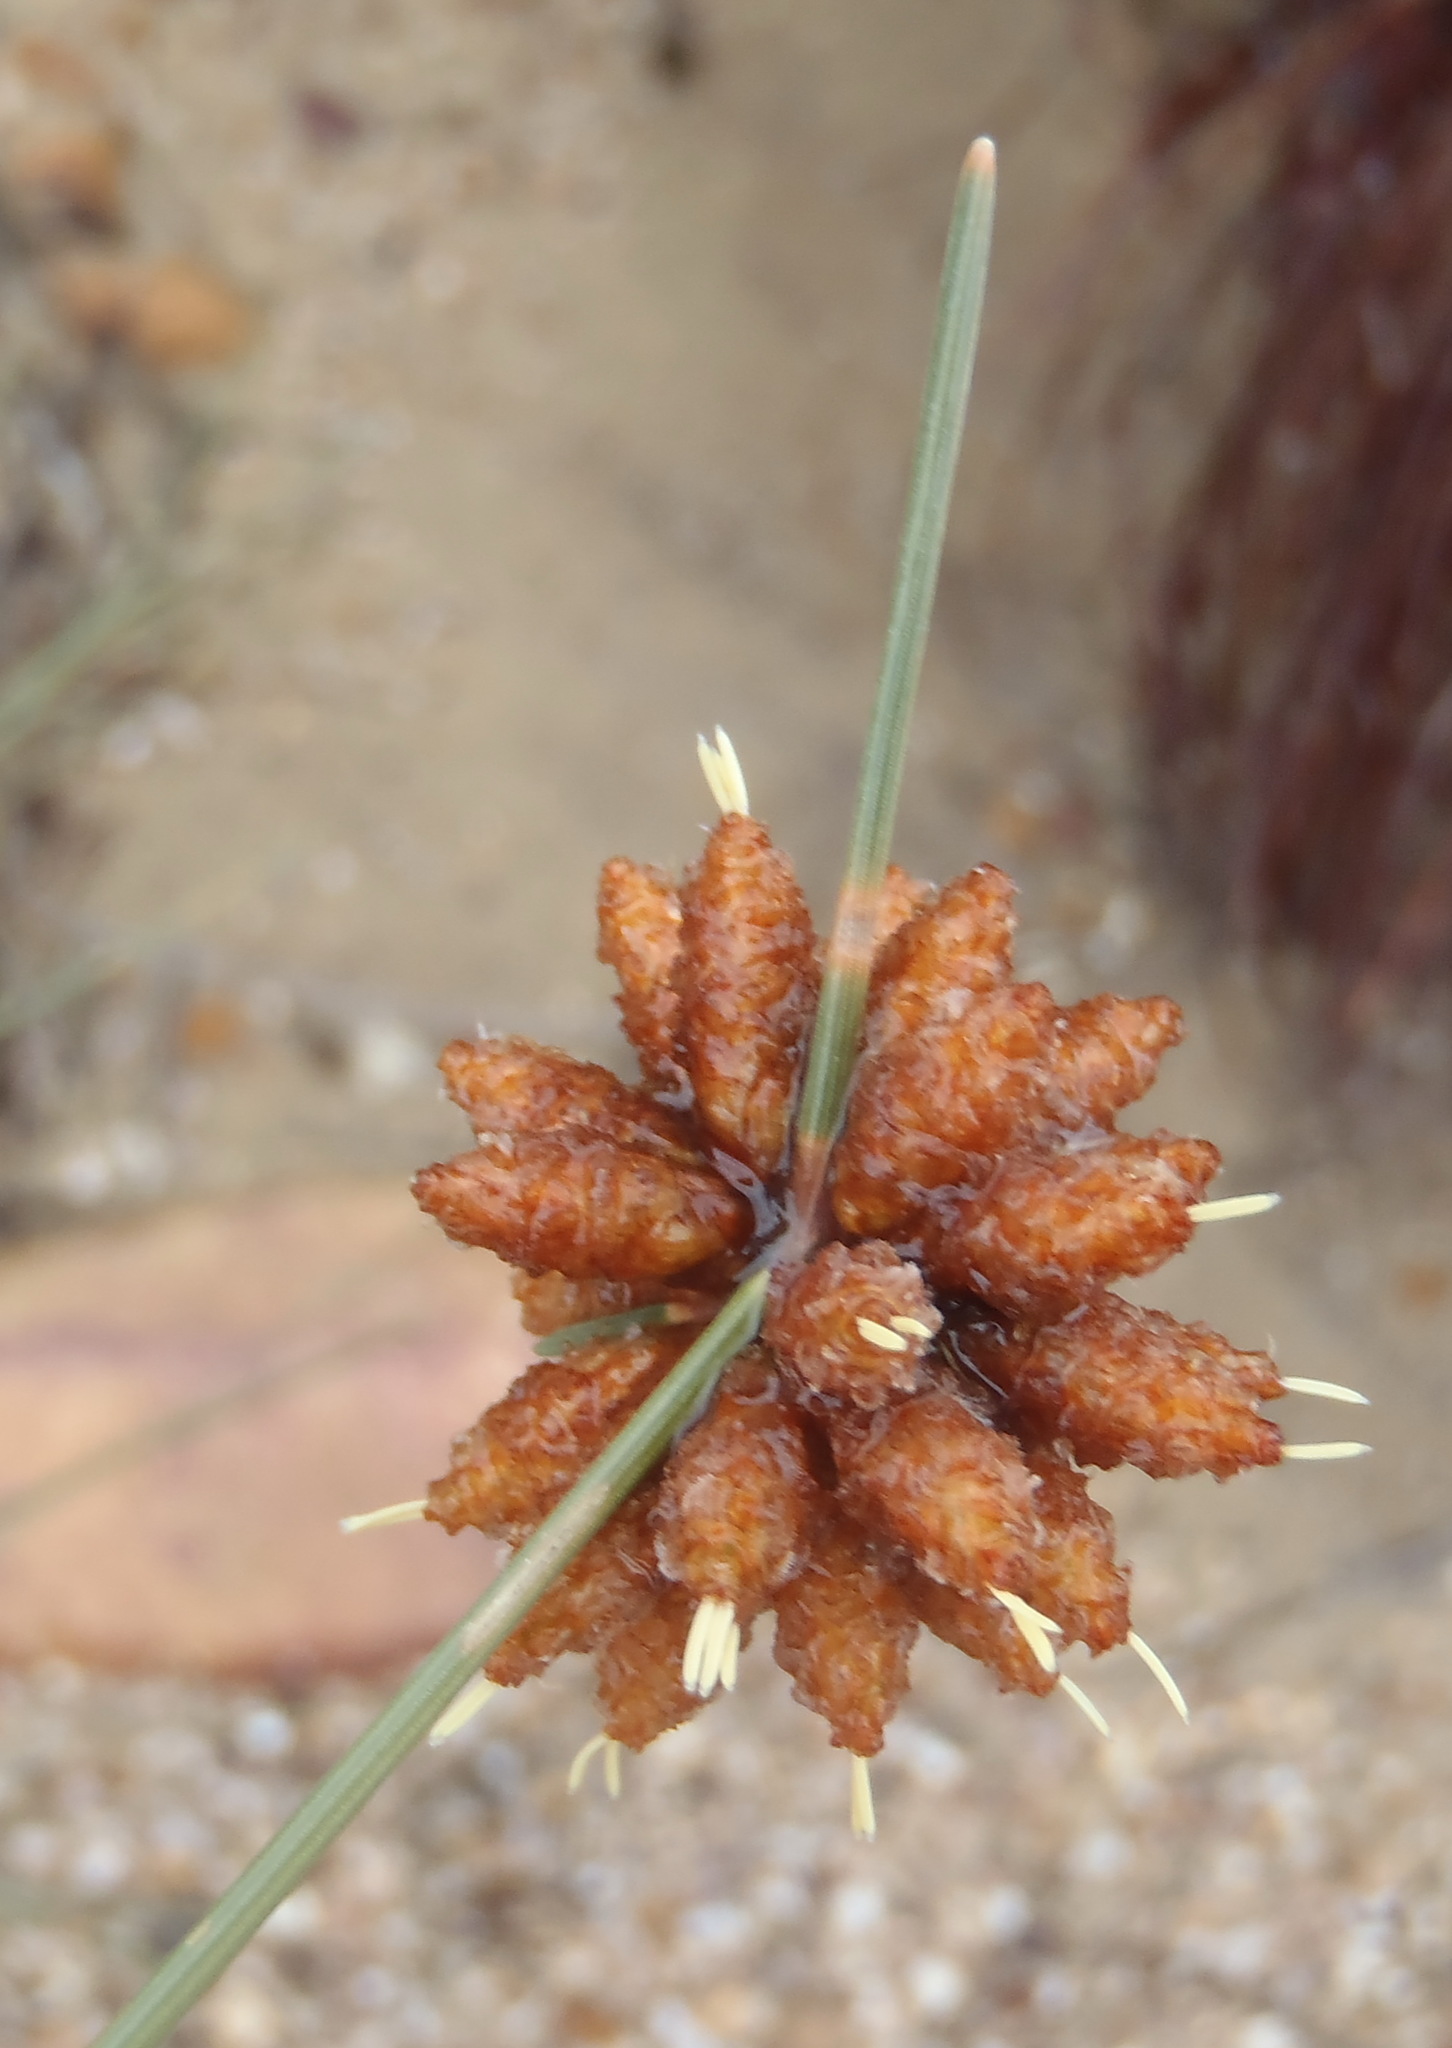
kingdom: Plantae
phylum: Tracheophyta
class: Liliopsida
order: Poales
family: Cyperaceae
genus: Ficinia
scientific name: Ficinia ecklonea
